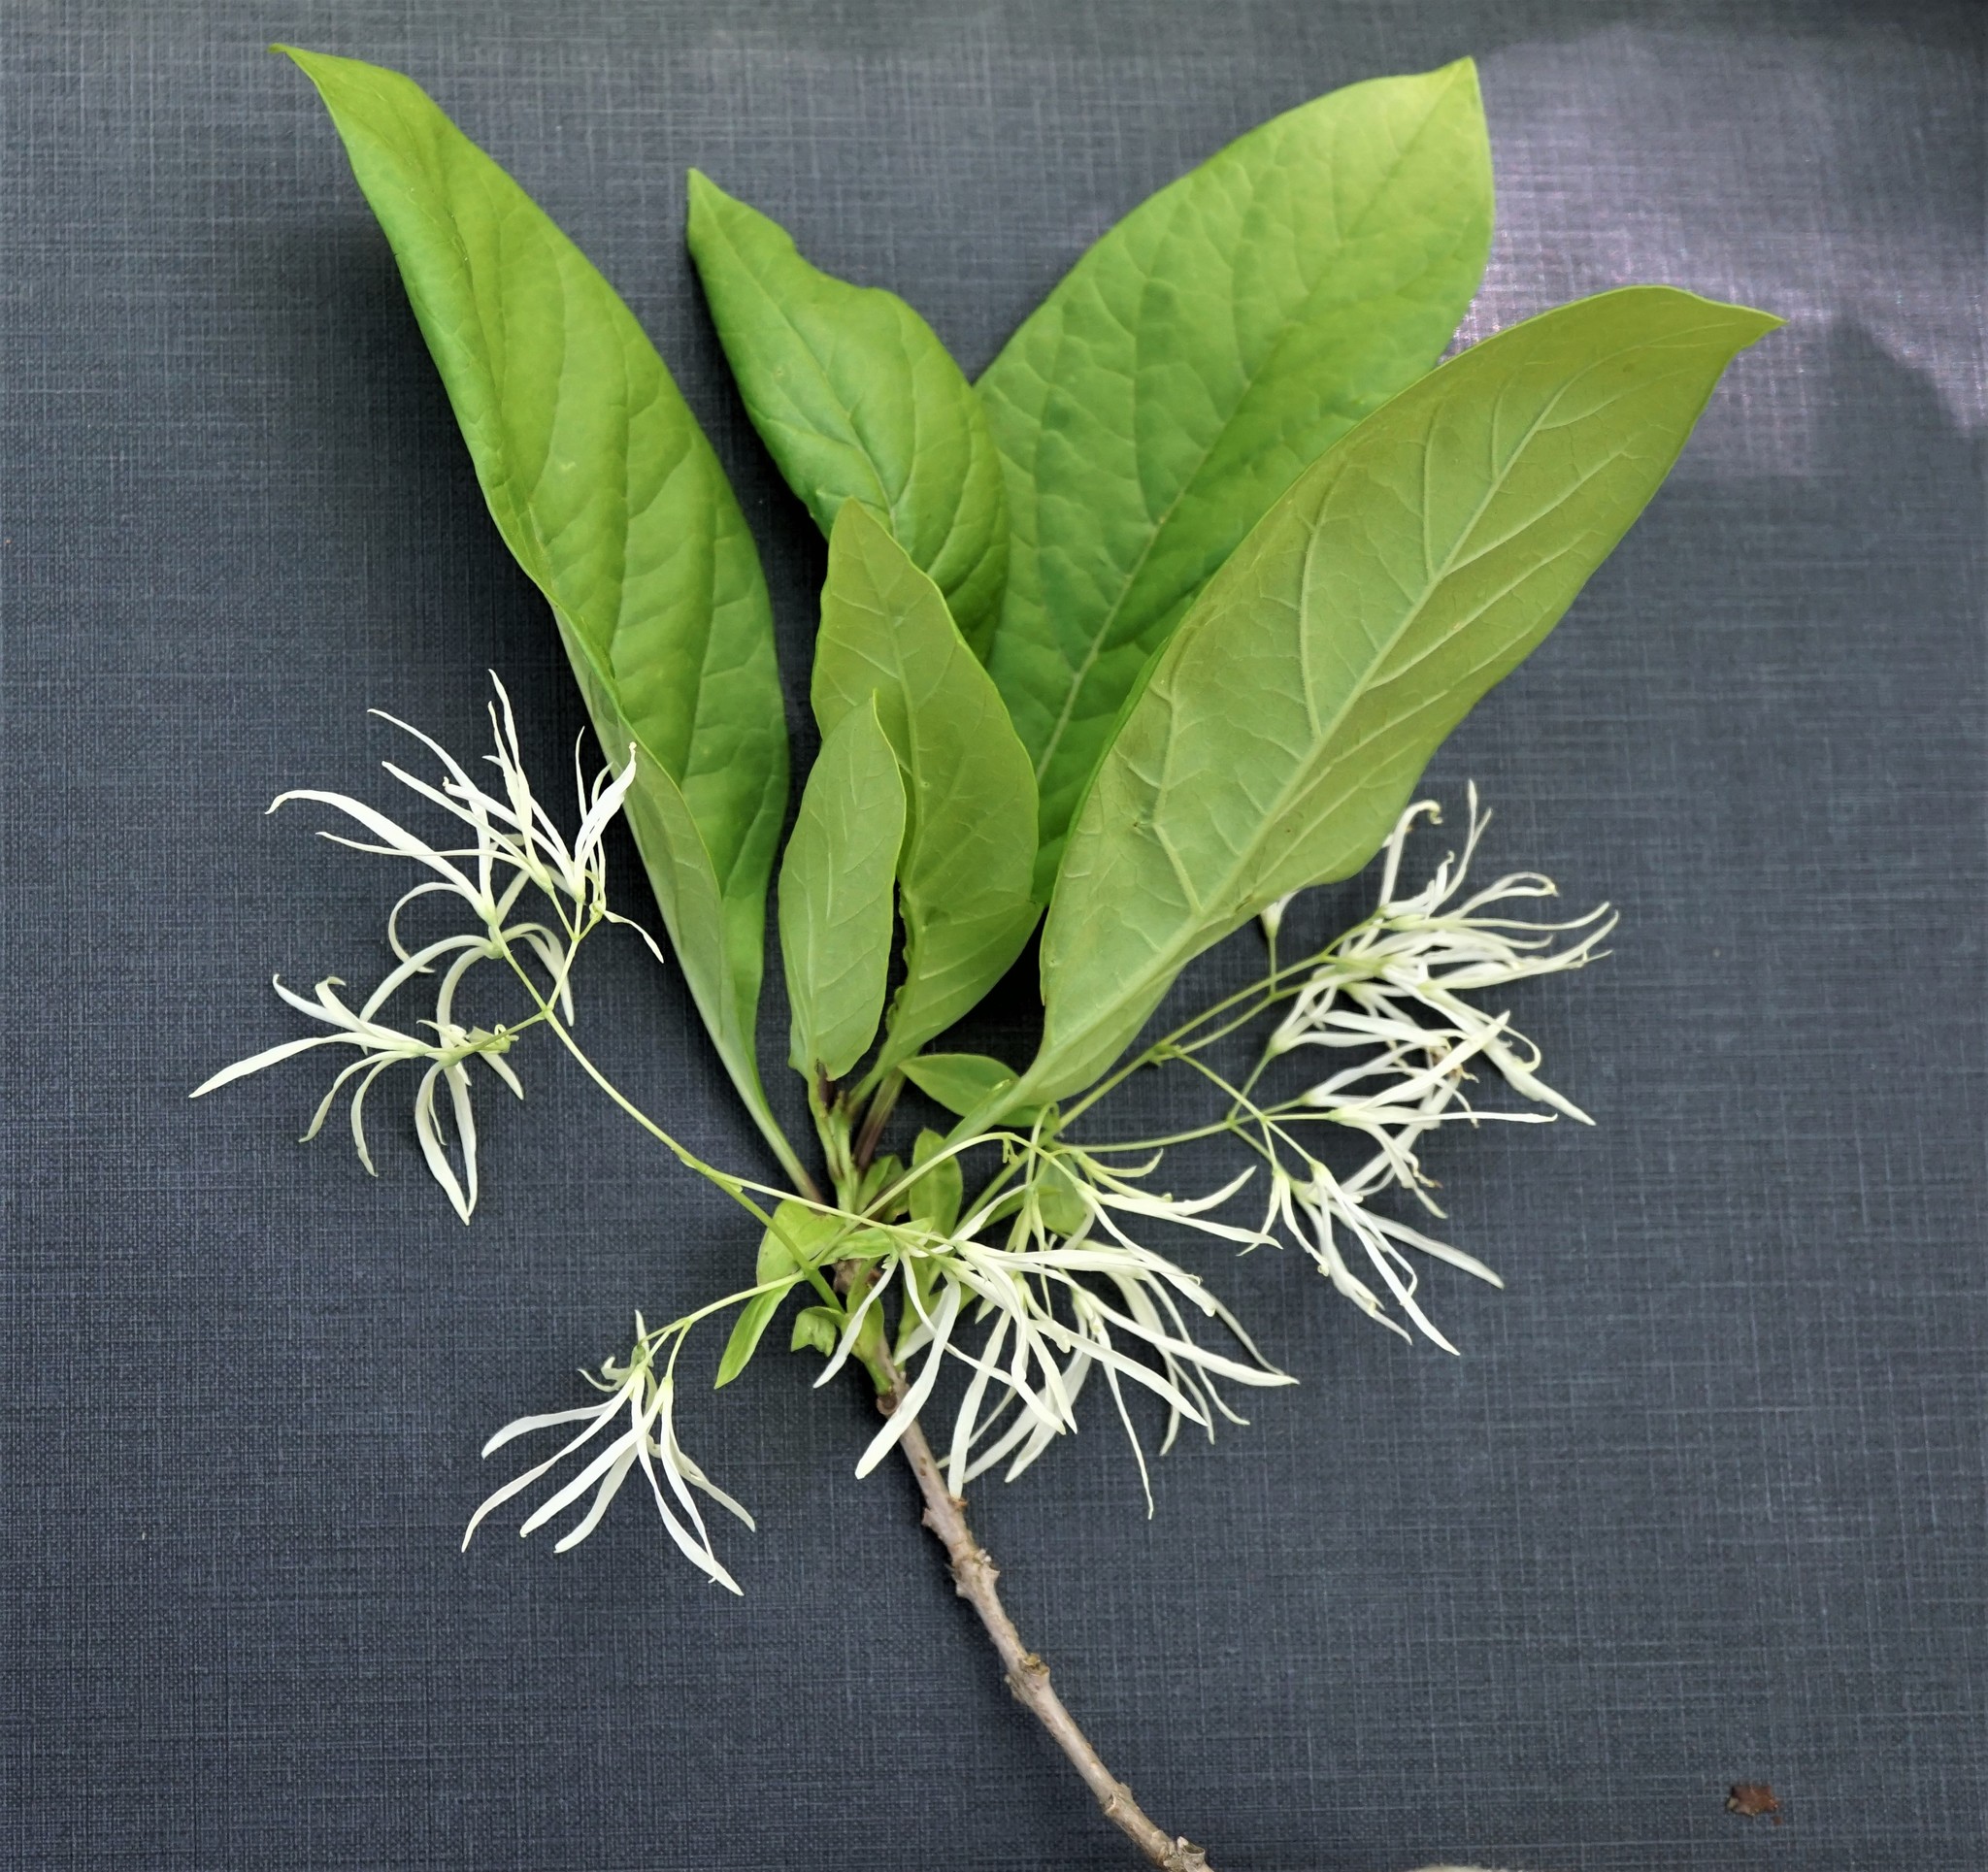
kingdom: Plantae
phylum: Tracheophyta
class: Magnoliopsida
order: Lamiales
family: Oleaceae
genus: Chionanthus
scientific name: Chionanthus virginicus
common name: American fringetree
